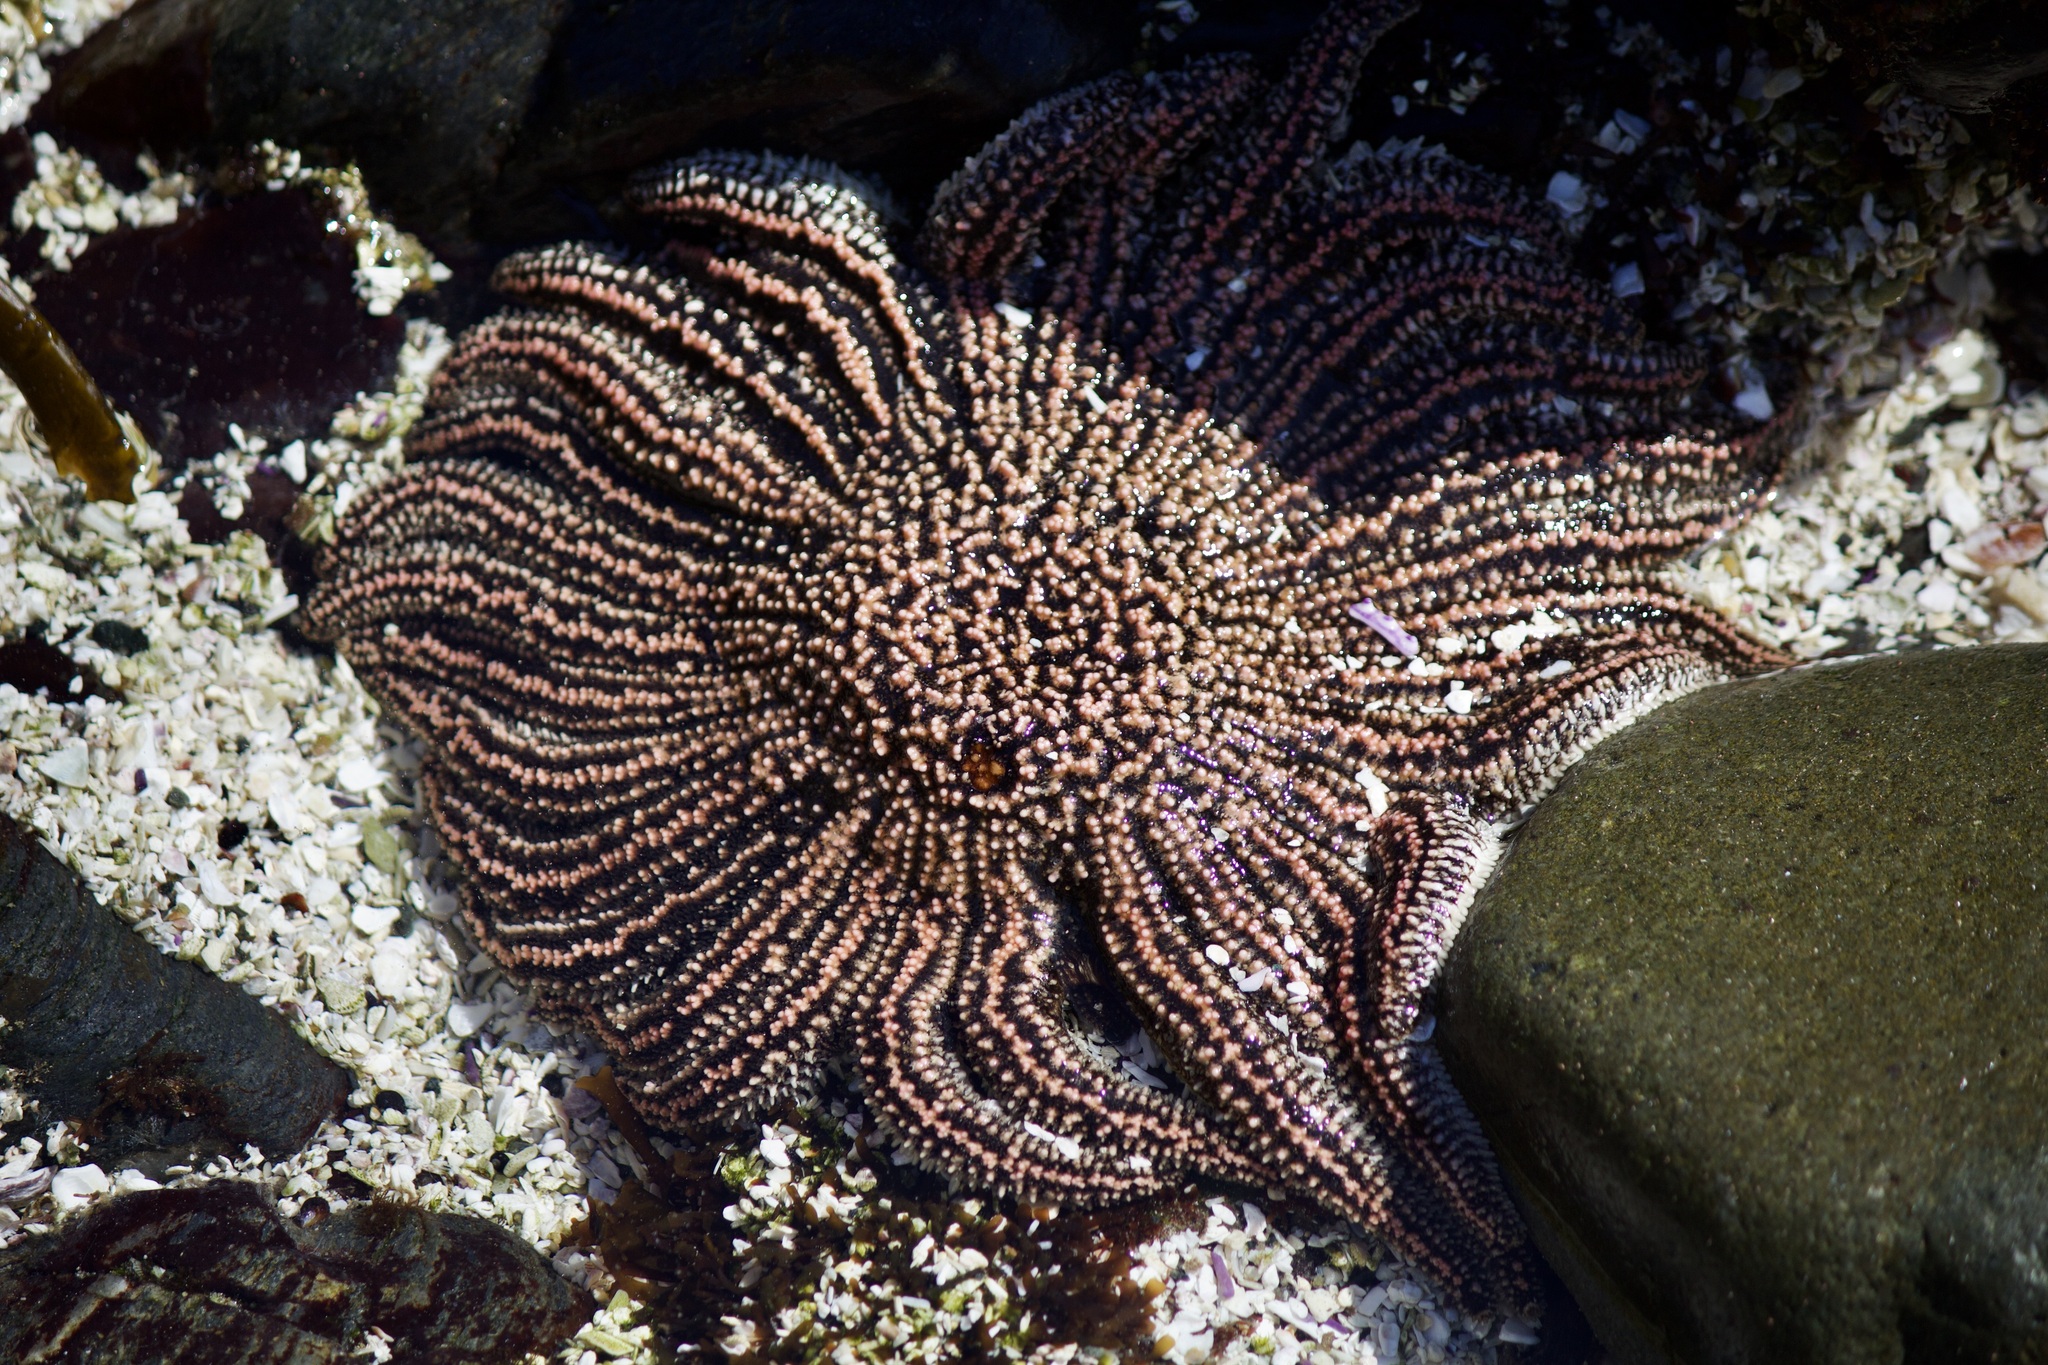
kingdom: Animalia
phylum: Echinodermata
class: Asteroidea
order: Forcipulatida
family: Heliasteridae
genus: Heliaster
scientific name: Heliaster helianthus
